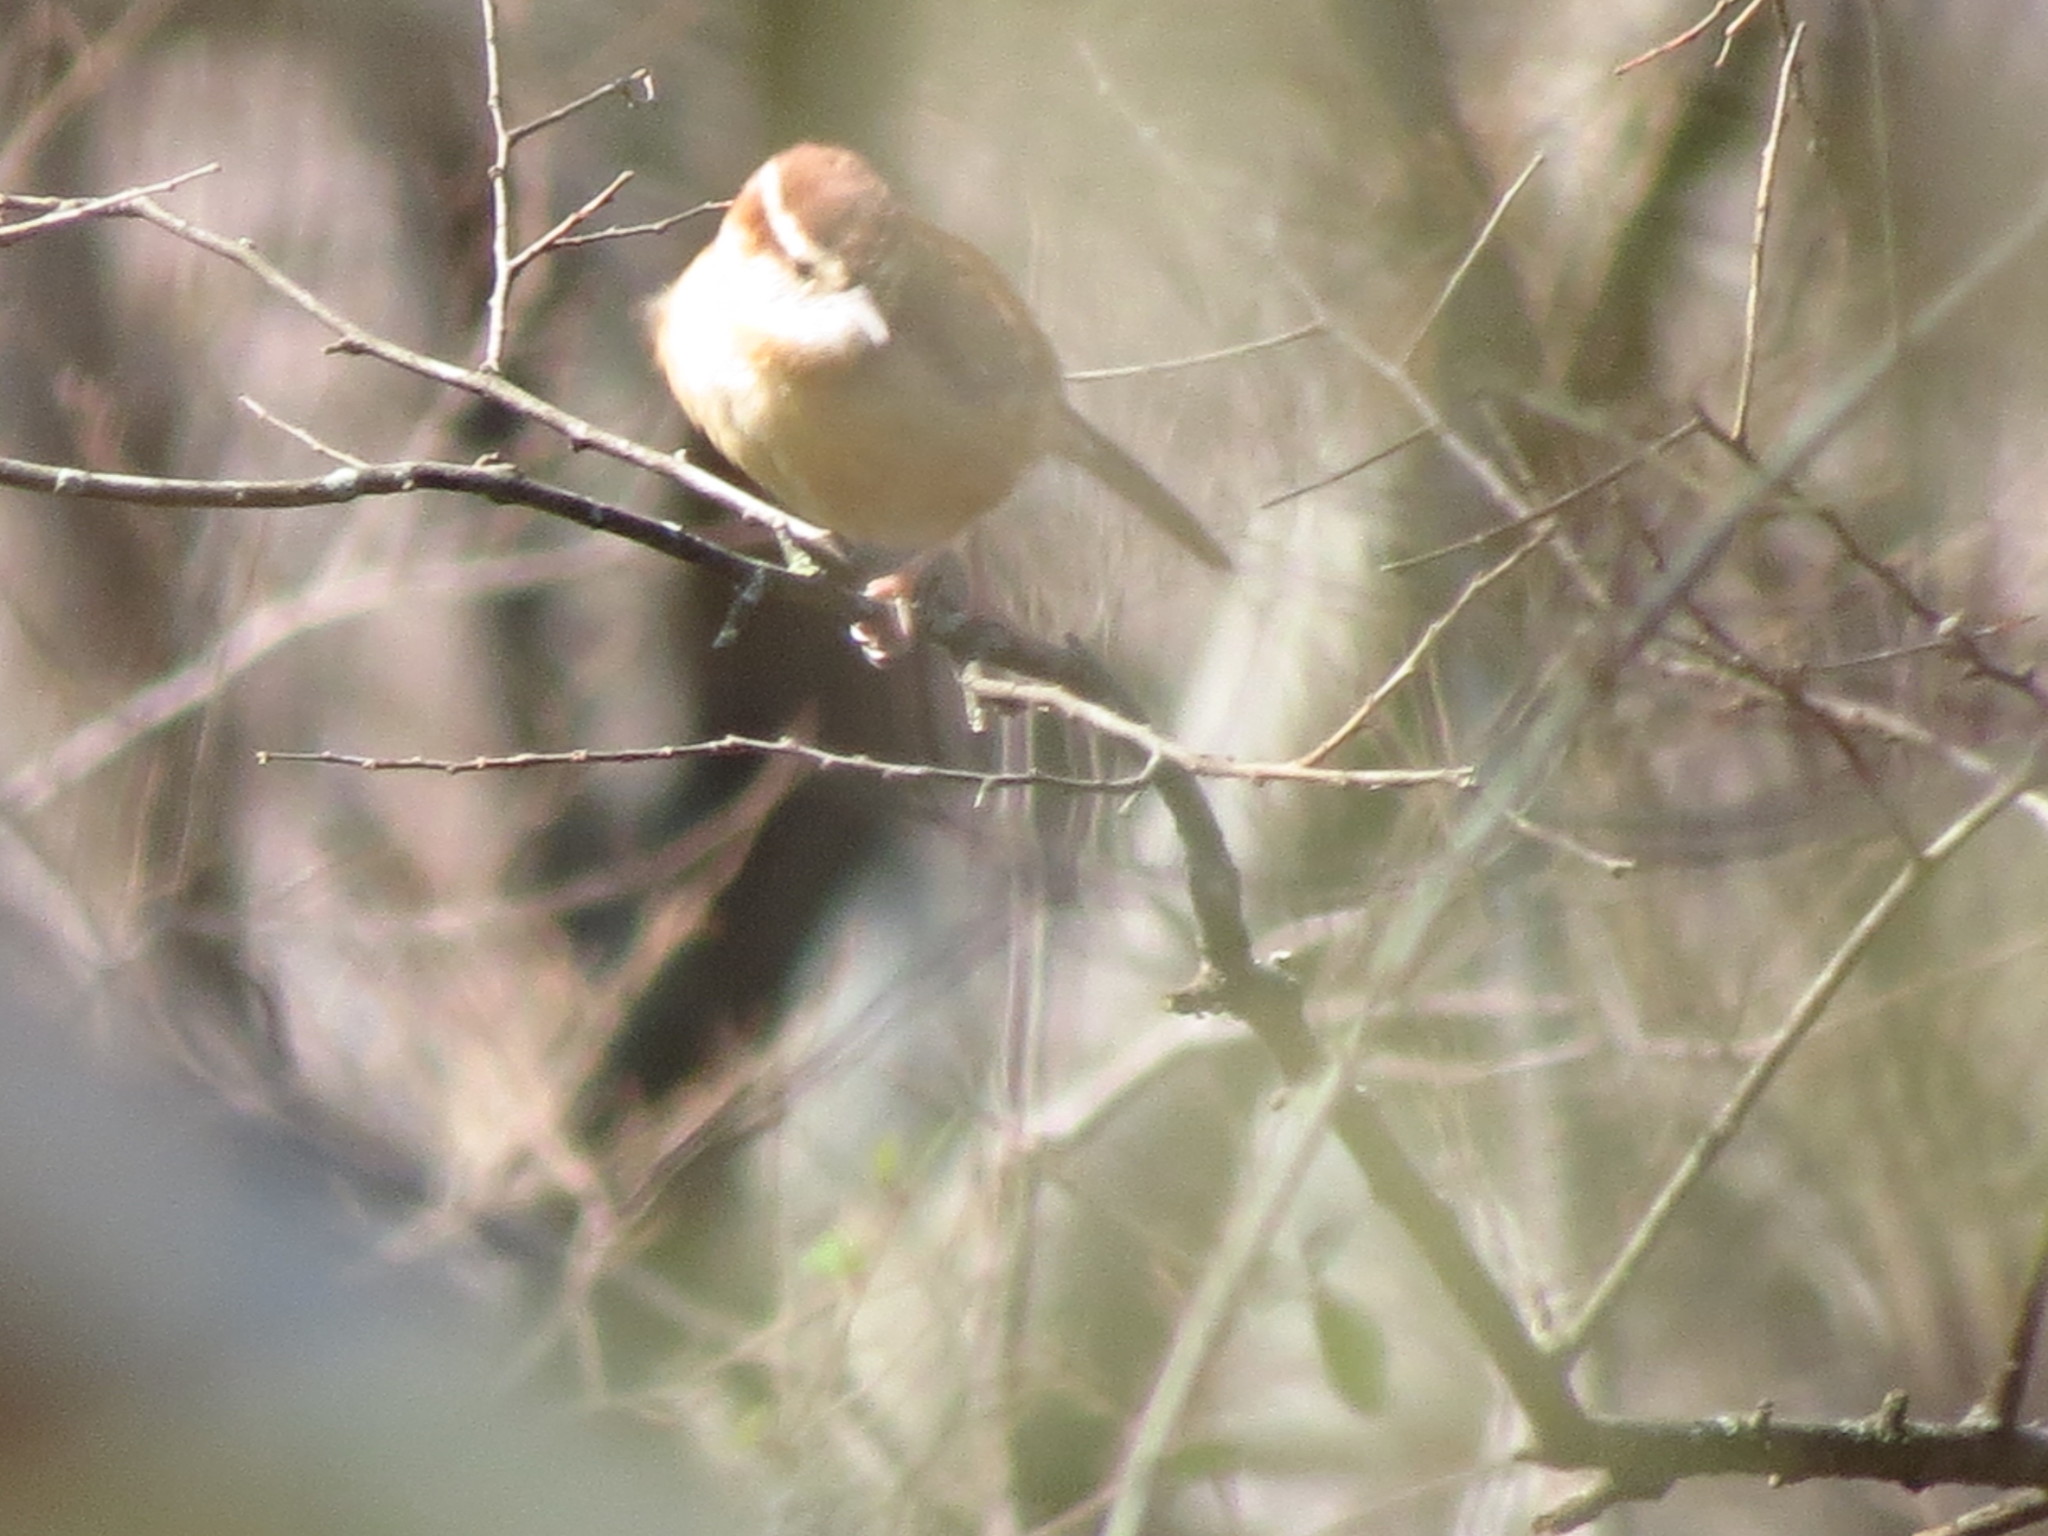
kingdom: Animalia
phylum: Chordata
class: Aves
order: Passeriformes
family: Troglodytidae
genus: Thryothorus
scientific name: Thryothorus ludovicianus
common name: Carolina wren
